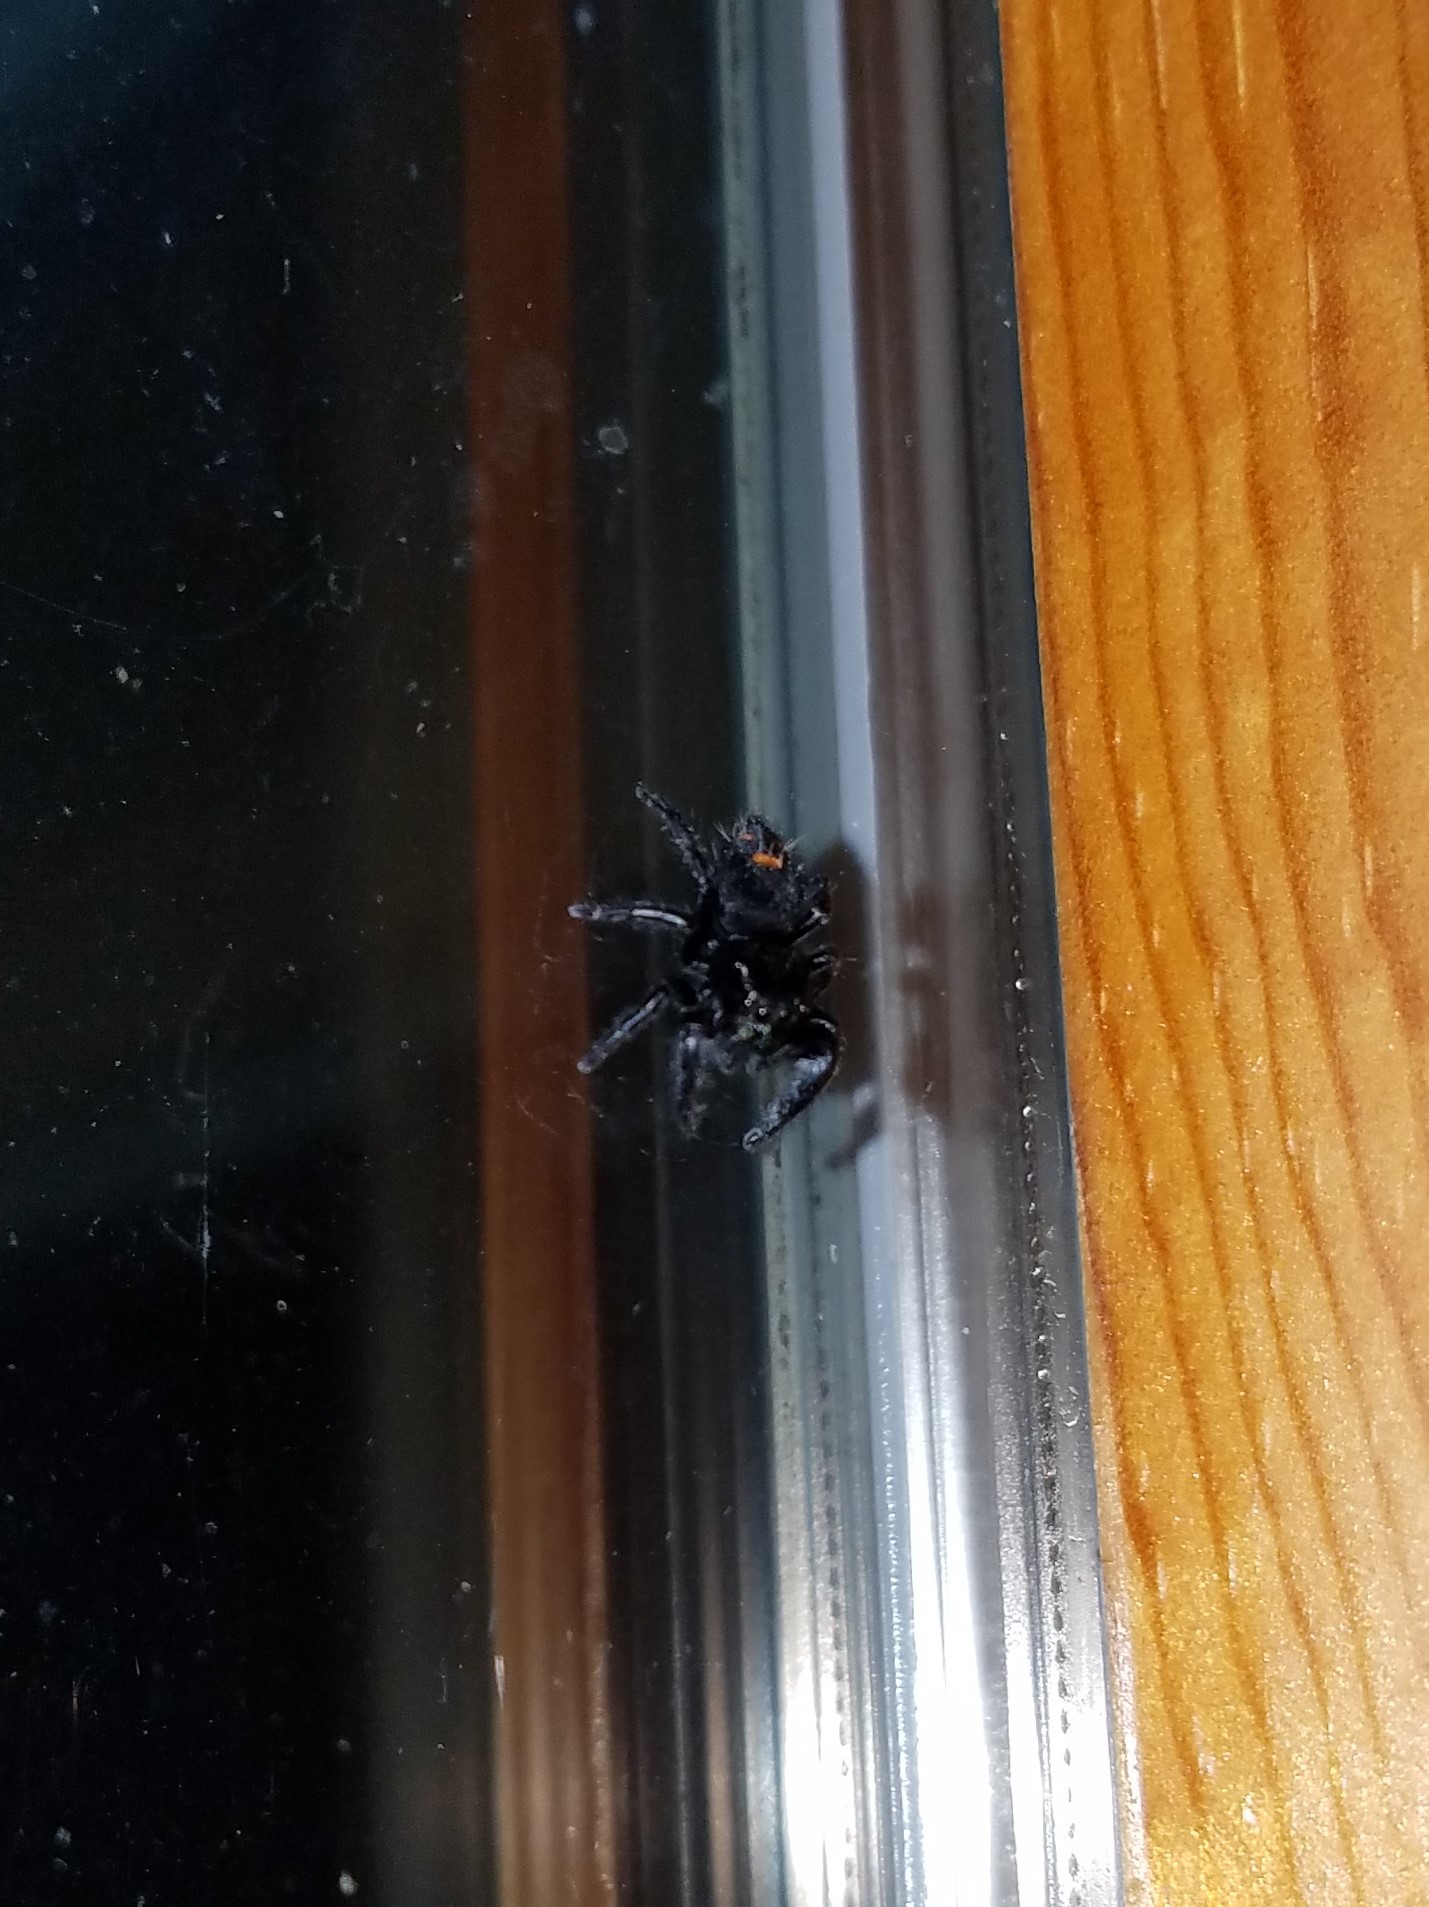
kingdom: Animalia
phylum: Arthropoda
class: Arachnida
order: Araneae
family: Salticidae
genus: Phidippus
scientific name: Phidippus audax
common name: Bold jumper
